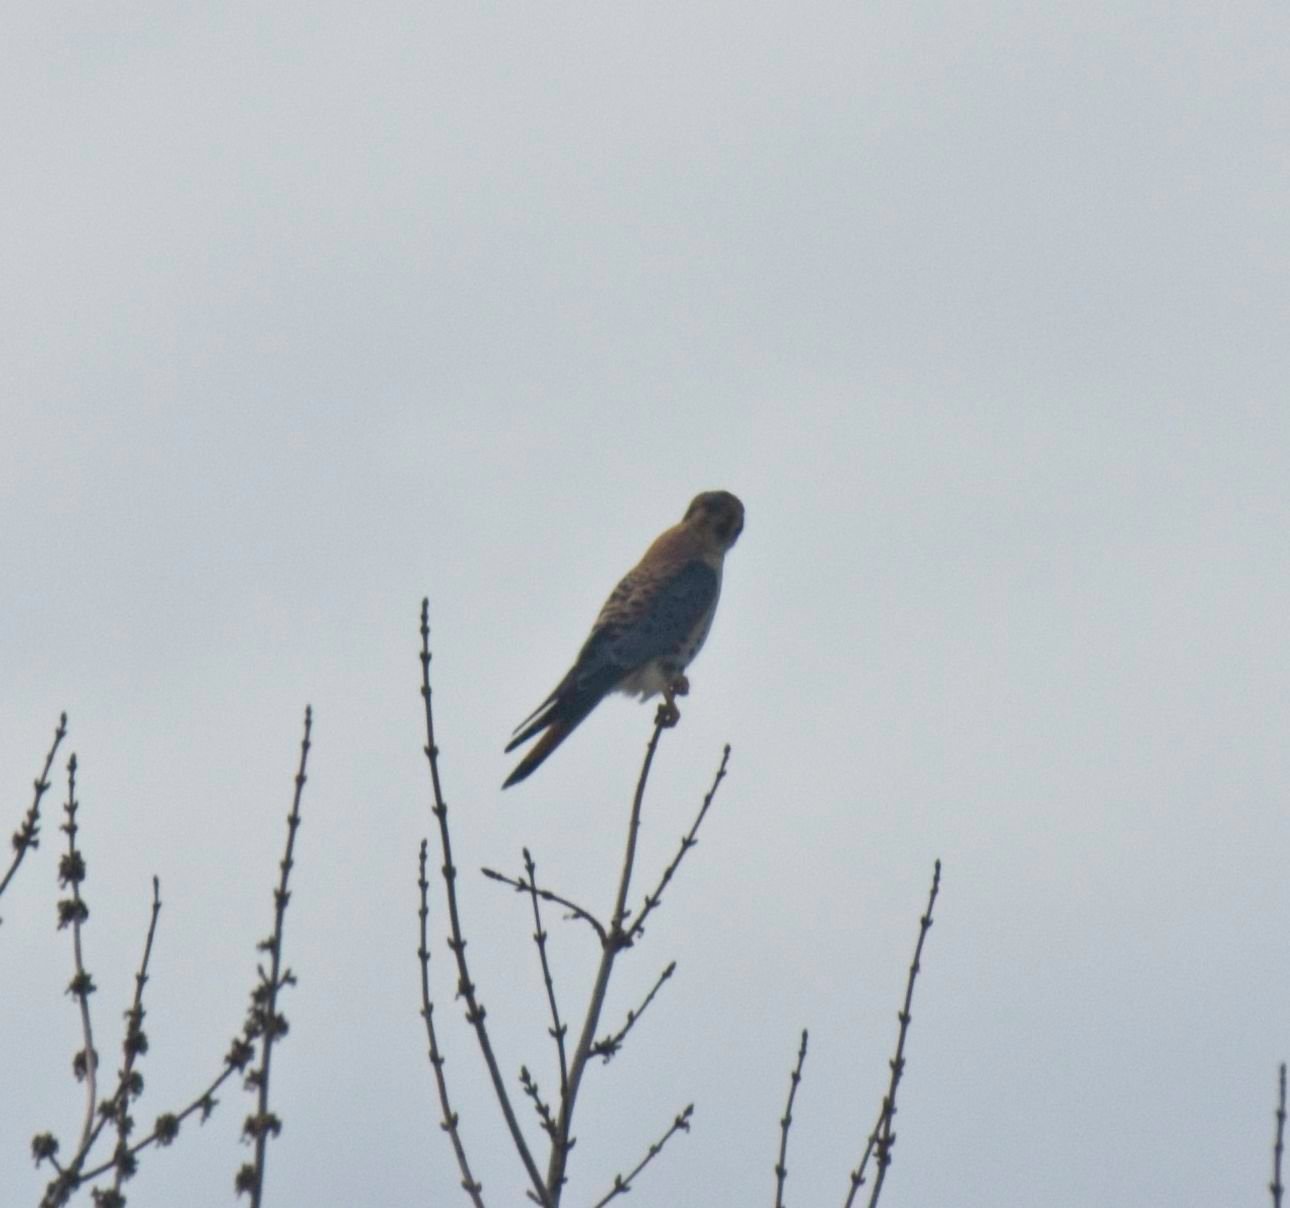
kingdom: Animalia
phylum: Chordata
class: Aves
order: Falconiformes
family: Falconidae
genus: Falco
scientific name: Falco sparverius
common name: American kestrel
